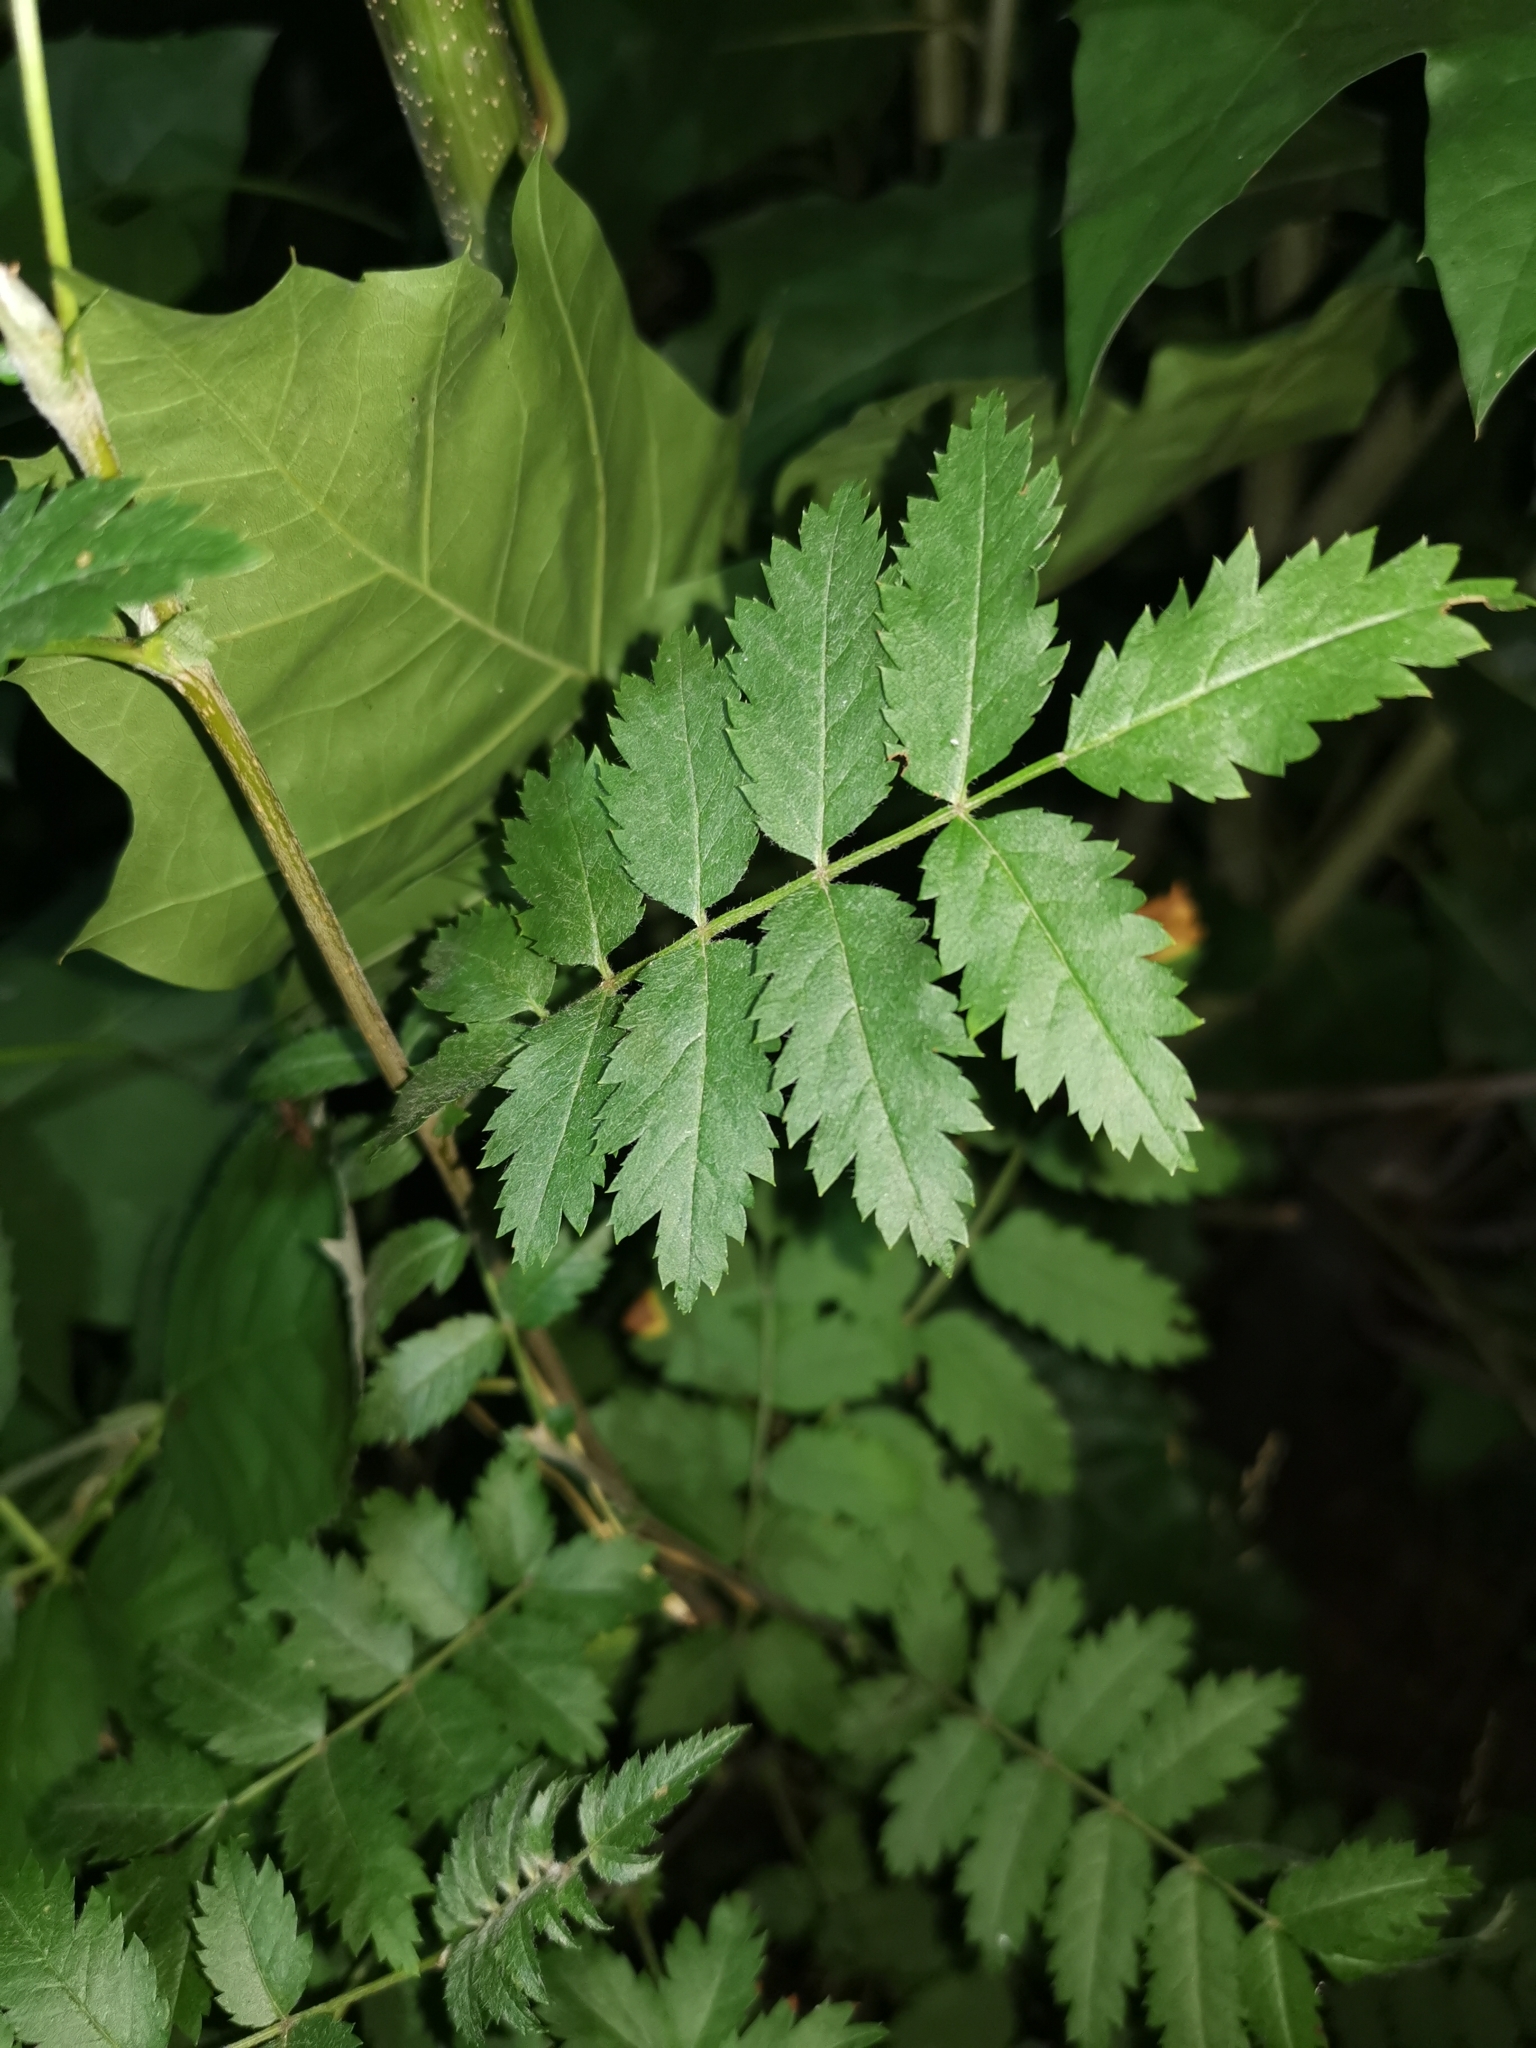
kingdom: Plantae
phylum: Tracheophyta
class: Magnoliopsida
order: Rosales
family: Rosaceae
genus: Sorbus
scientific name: Sorbus aucuparia
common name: Rowan
